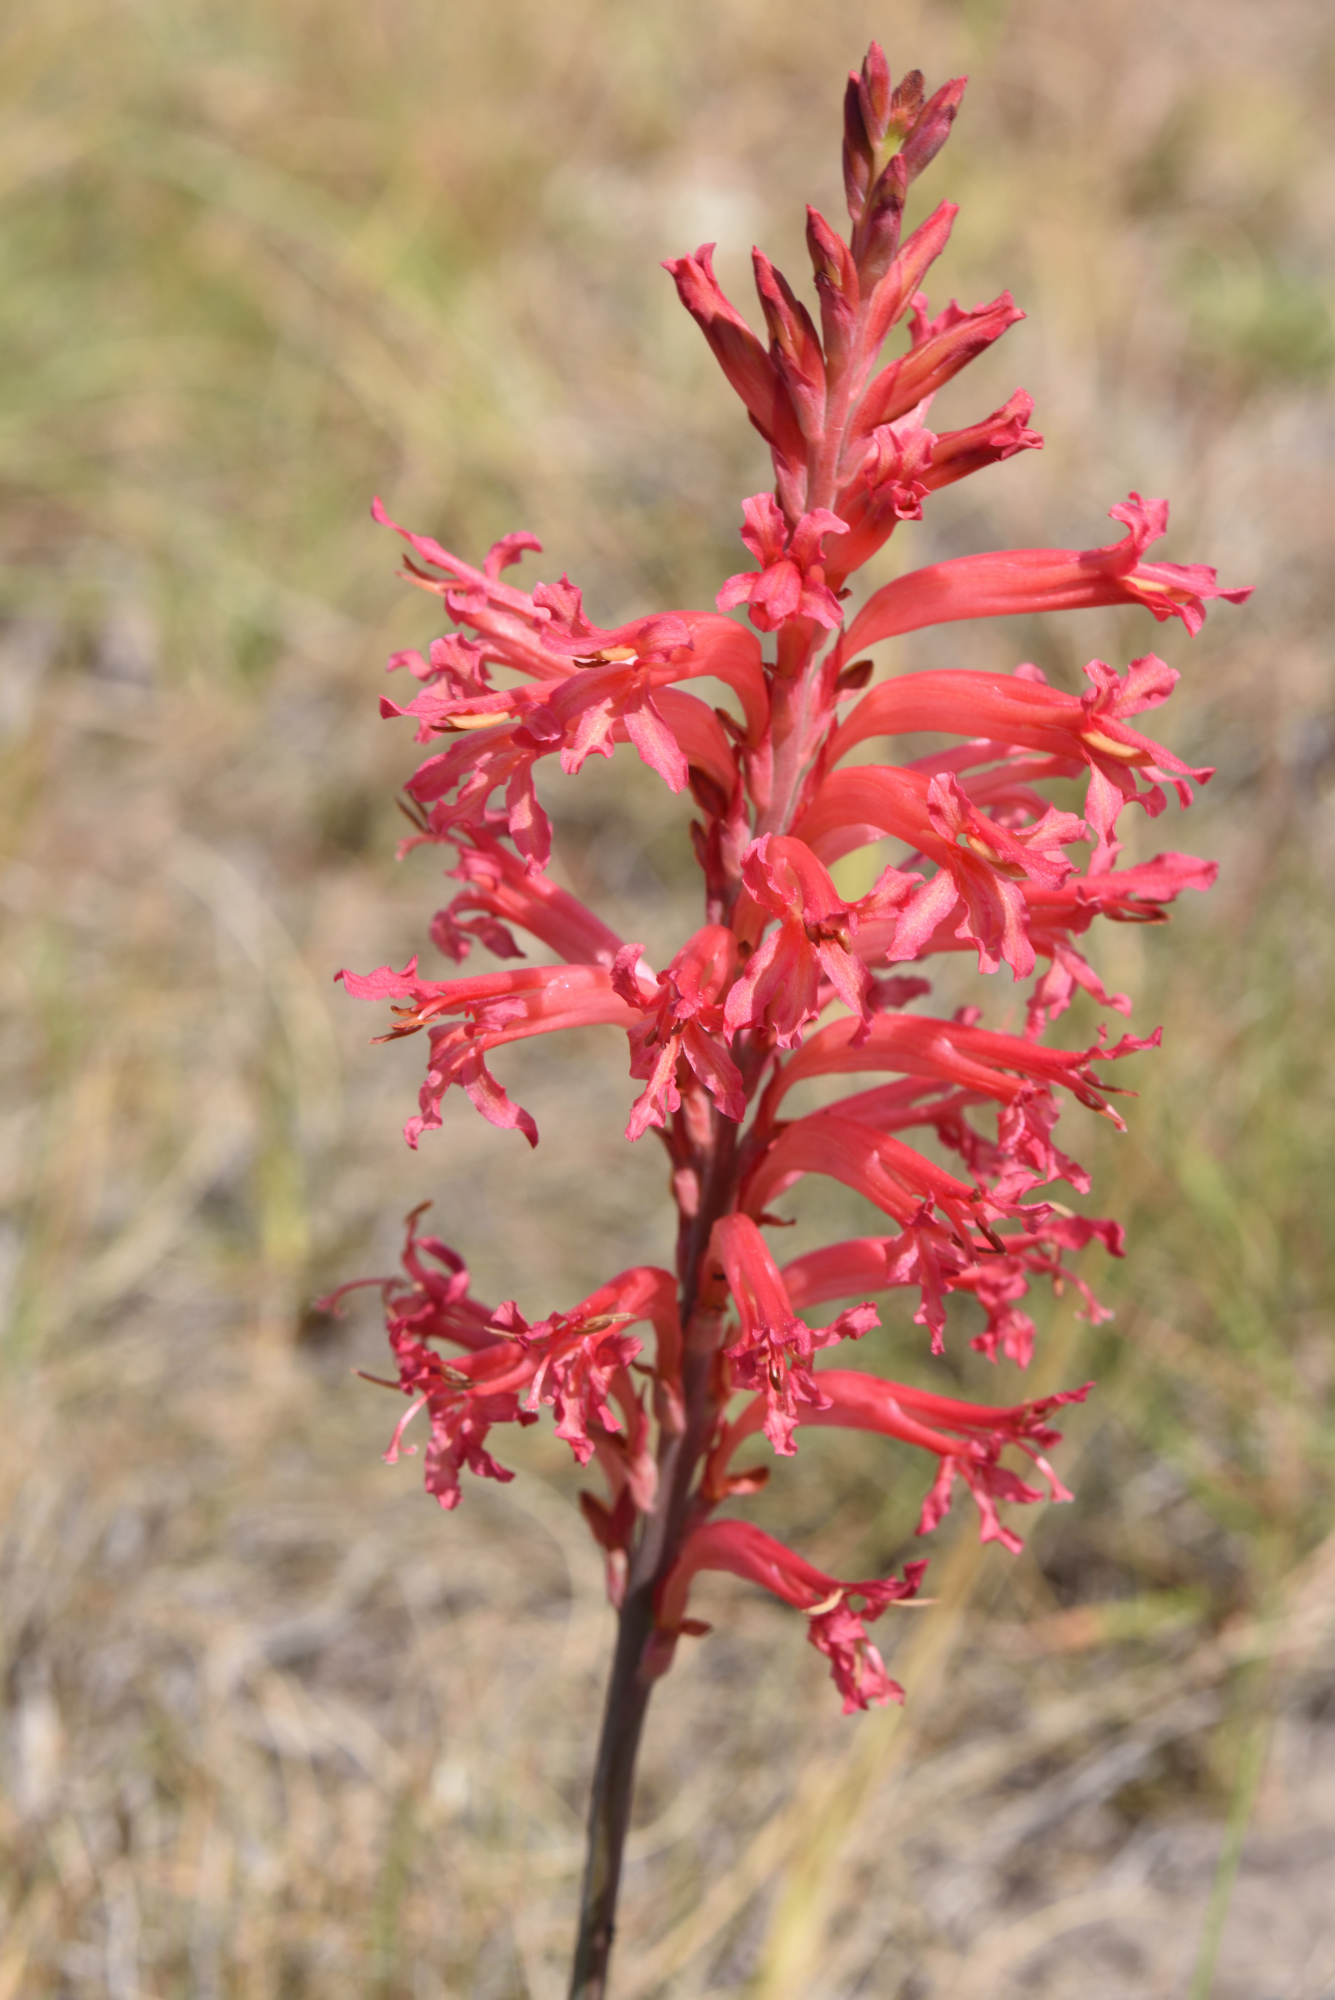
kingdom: Plantae
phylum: Tracheophyta
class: Liliopsida
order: Asparagales
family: Iridaceae
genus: Tritoniopsis
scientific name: Tritoniopsis antholyza
